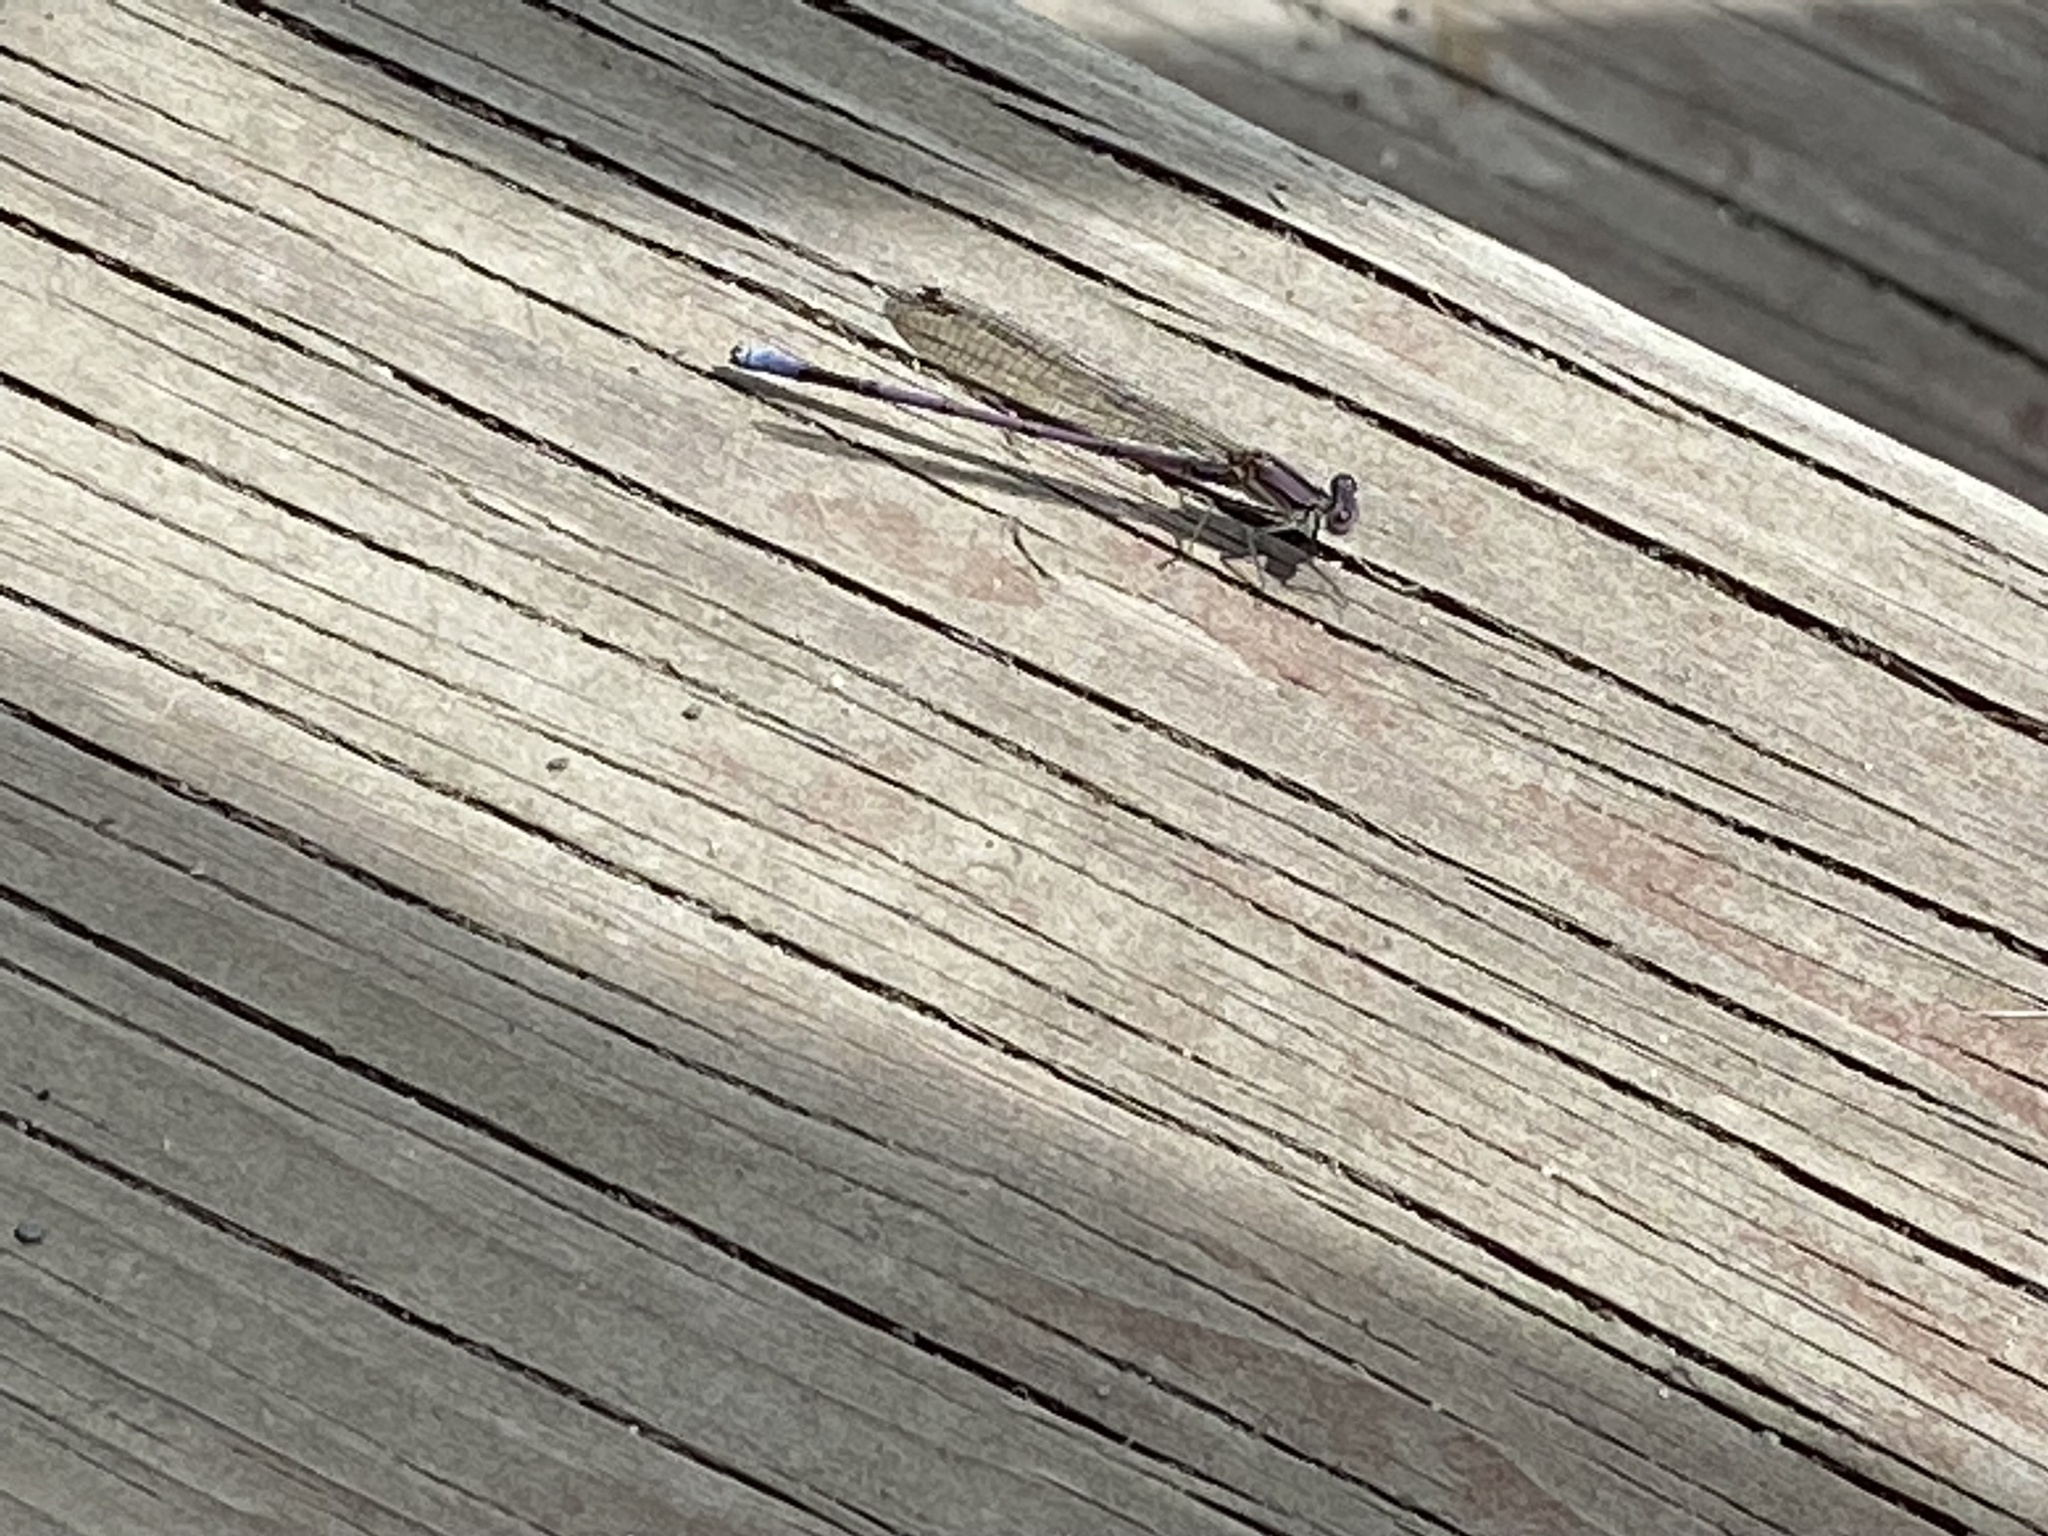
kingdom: Animalia
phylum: Arthropoda
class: Insecta
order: Odonata
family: Coenagrionidae
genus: Argia
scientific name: Argia fumipennis
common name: Variable dancer
